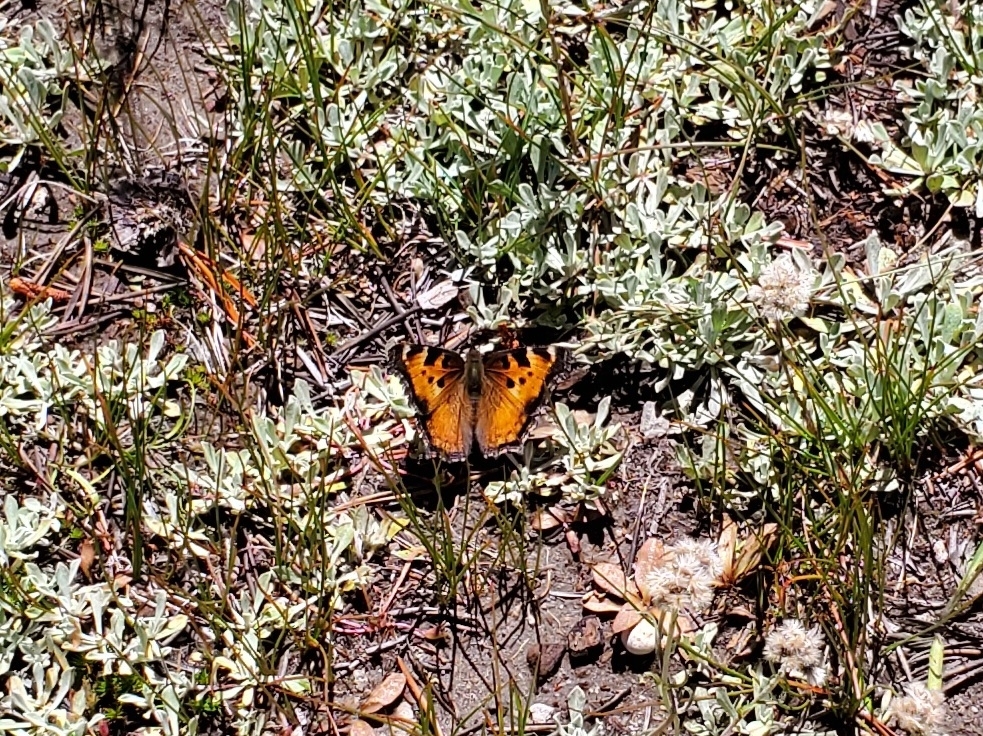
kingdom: Animalia
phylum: Arthropoda
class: Insecta
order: Lepidoptera
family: Nymphalidae
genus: Nymphalis
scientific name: Nymphalis californica
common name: California tortoiseshell
